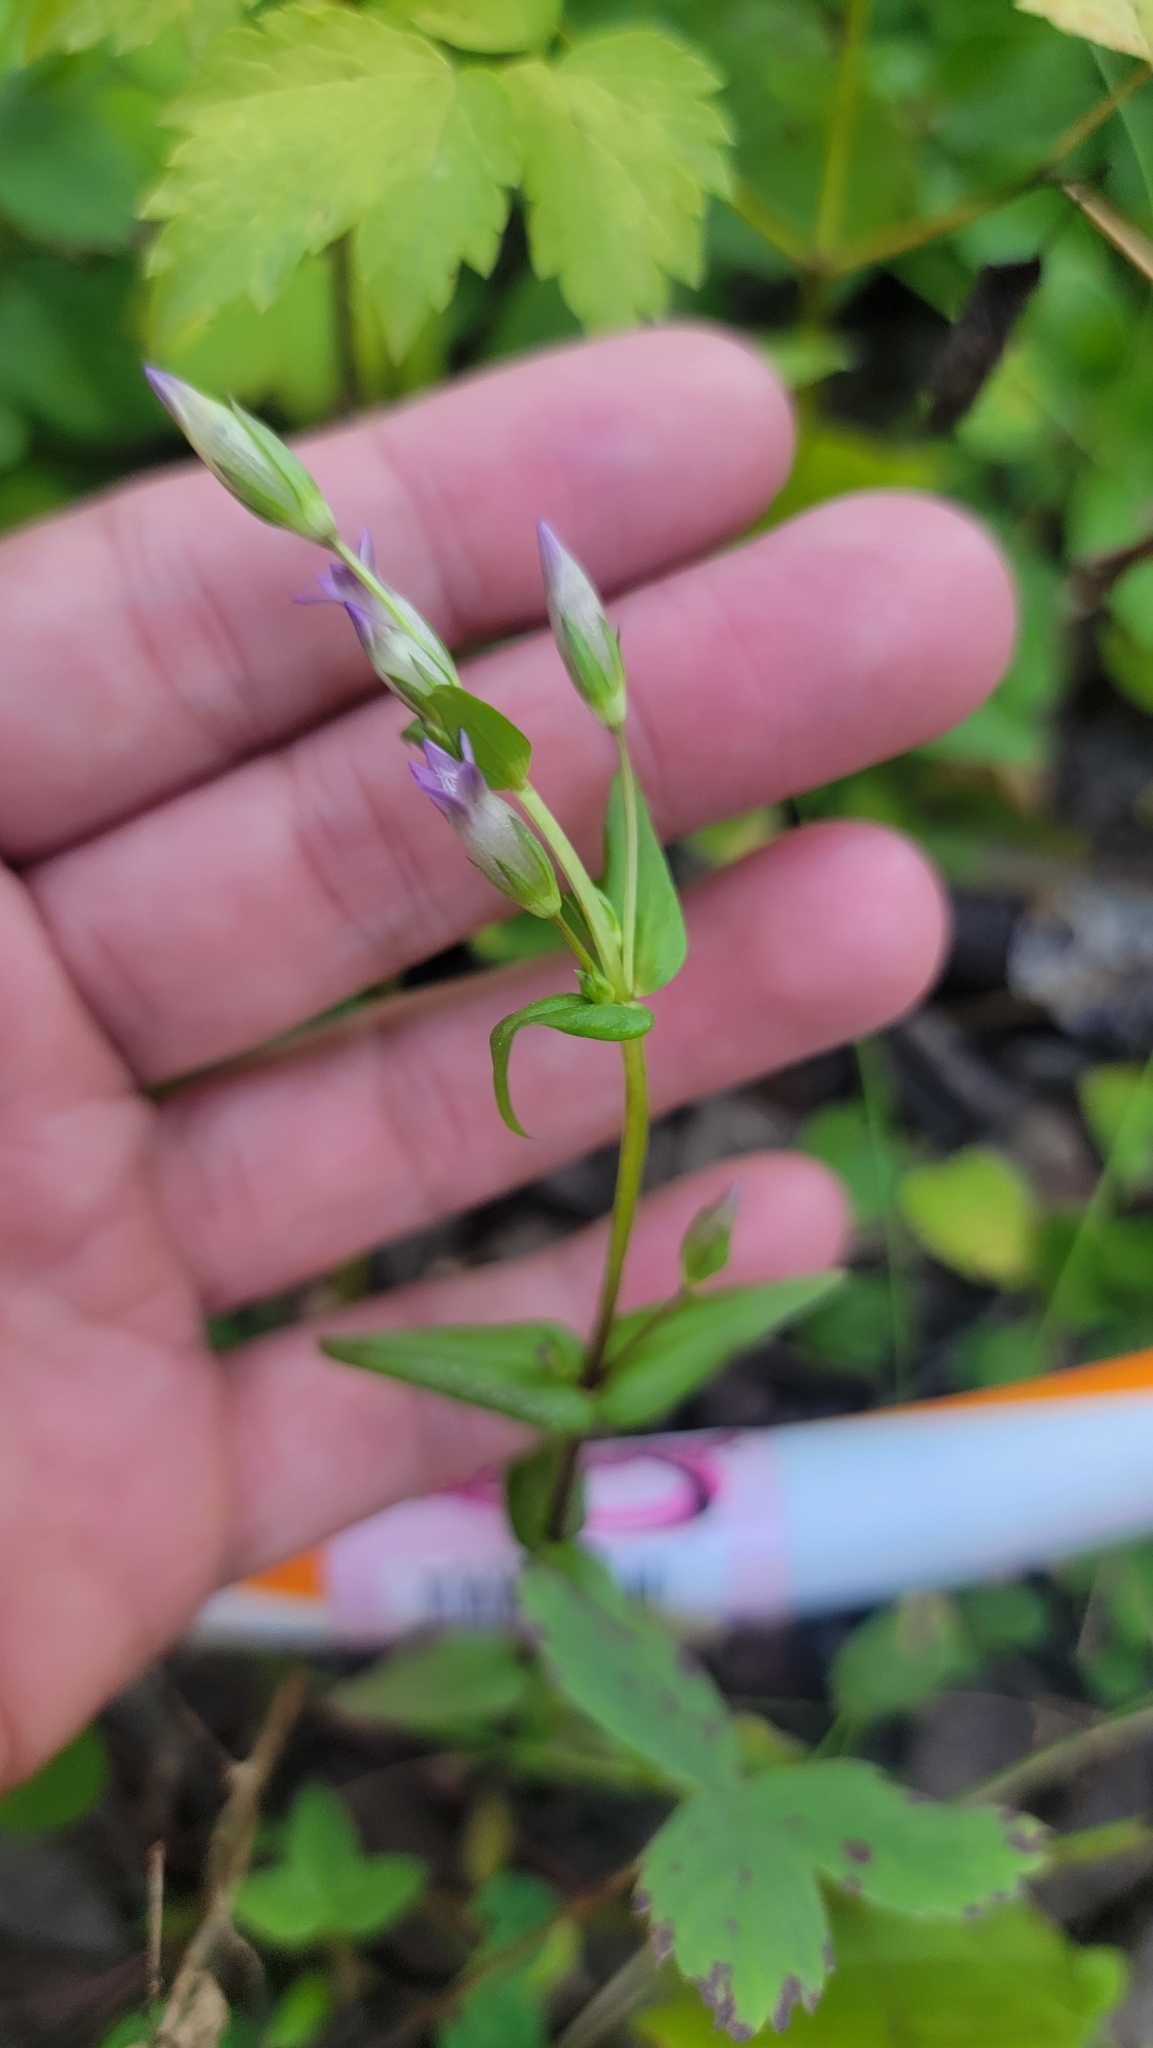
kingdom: Plantae
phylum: Tracheophyta
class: Magnoliopsida
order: Gentianales
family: Gentianaceae
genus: Gentianella
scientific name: Gentianella amarella
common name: Autumn gentian
